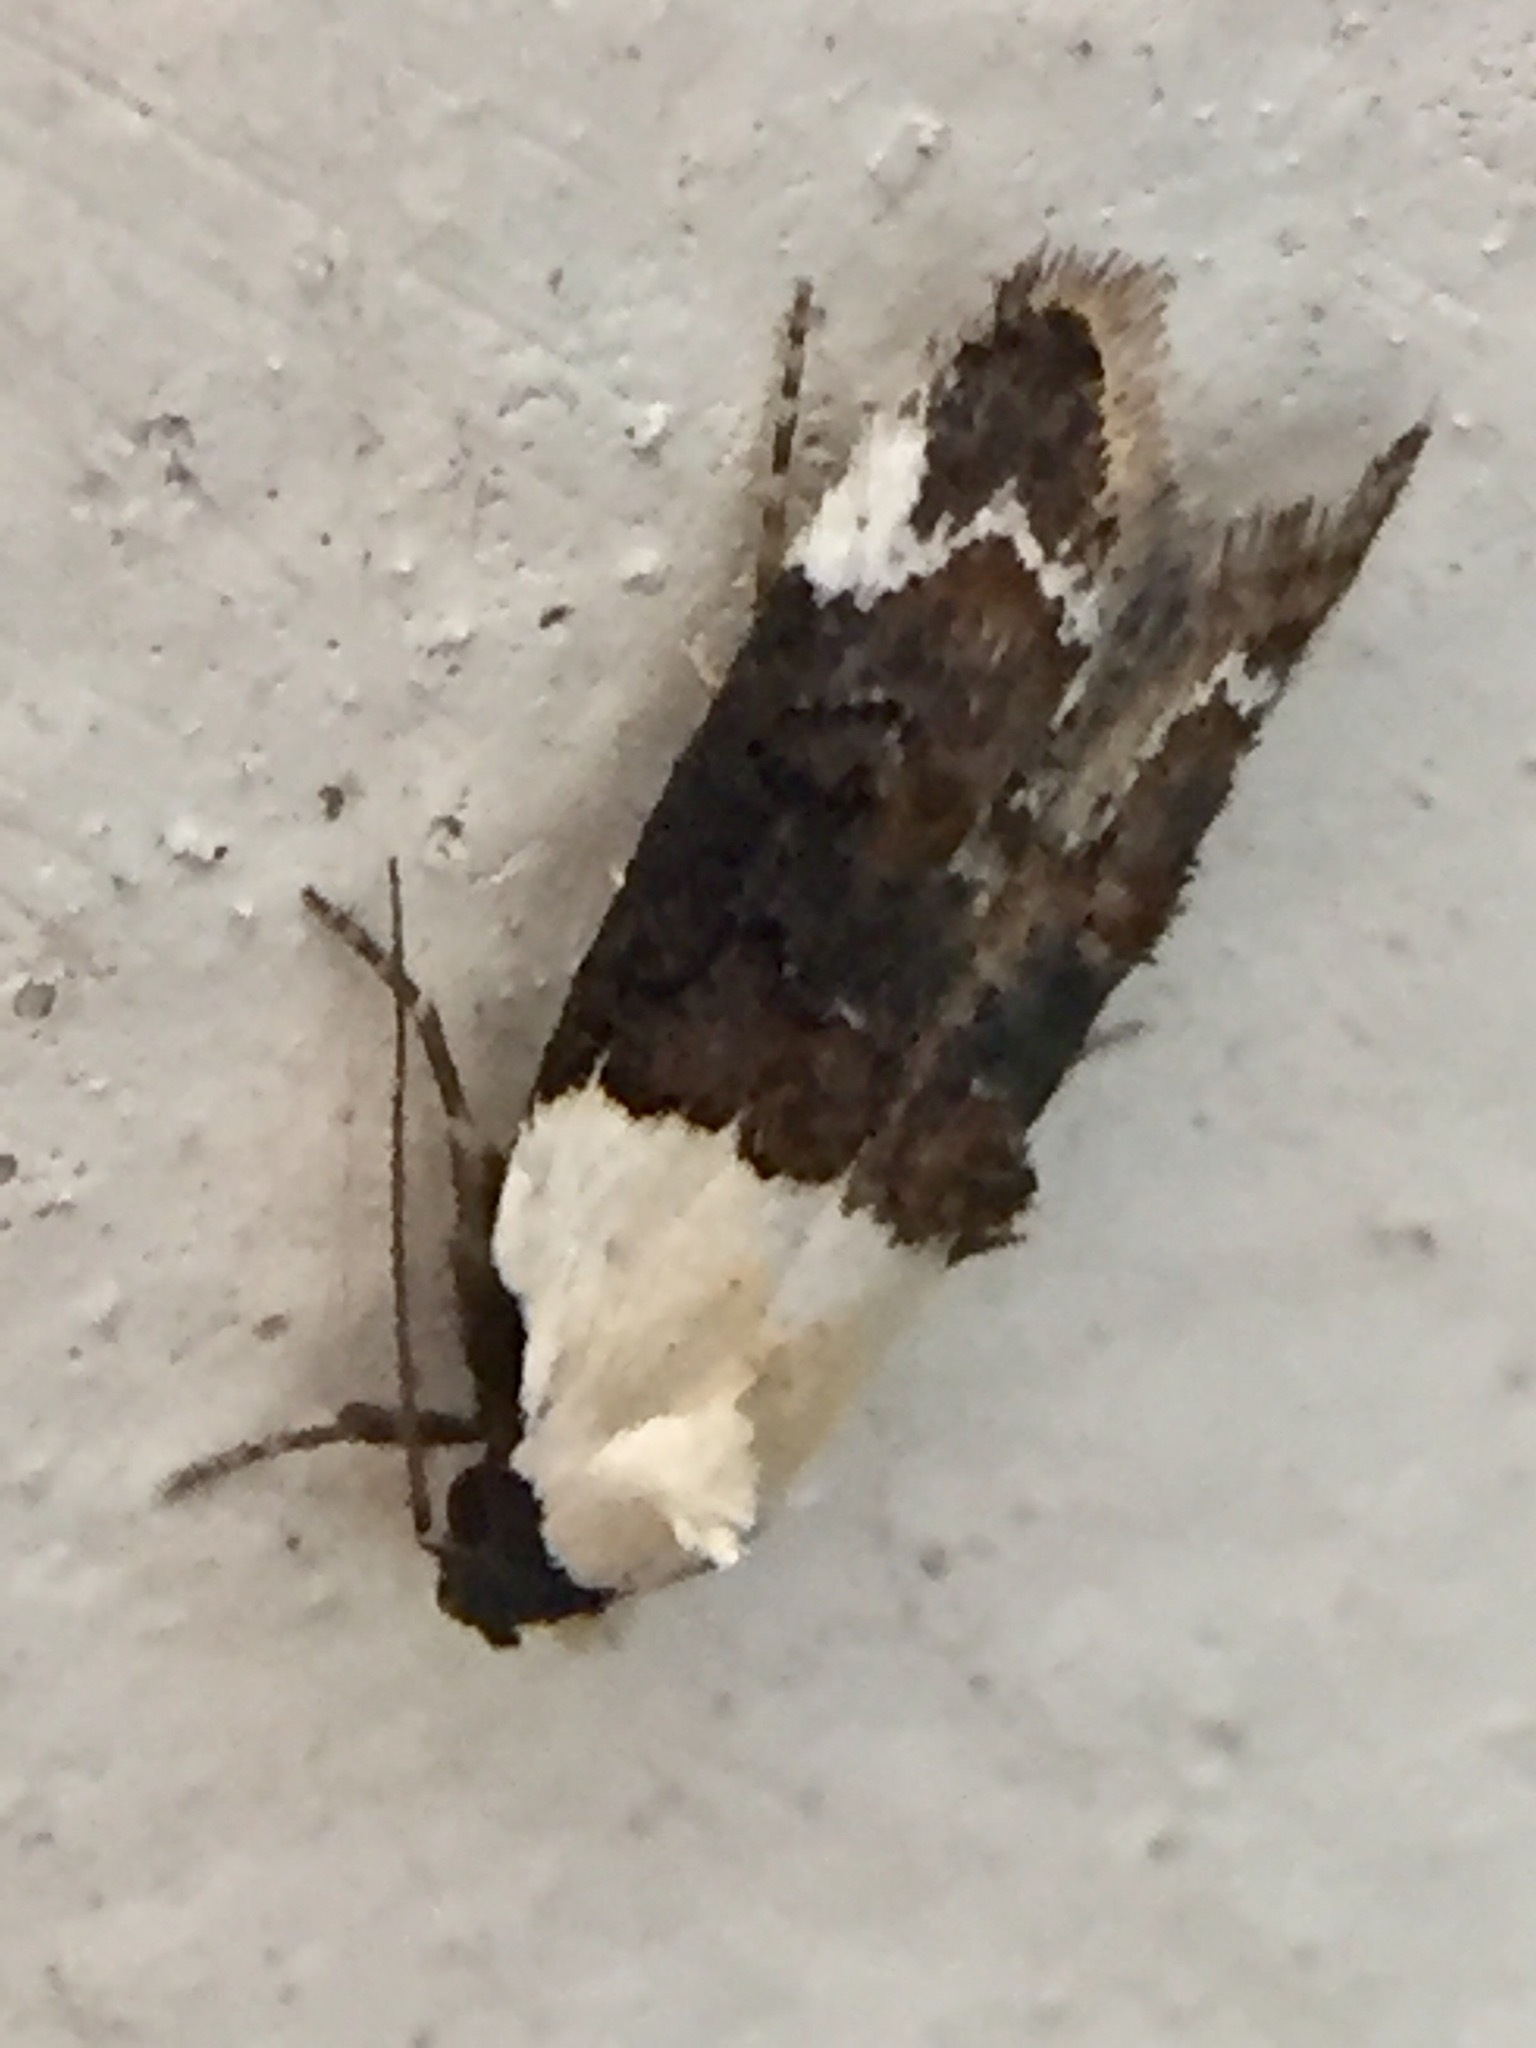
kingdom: Animalia
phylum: Arthropoda
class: Insecta
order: Lepidoptera
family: Oecophoridae
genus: Trachypepla
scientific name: Trachypepla euryleucota
